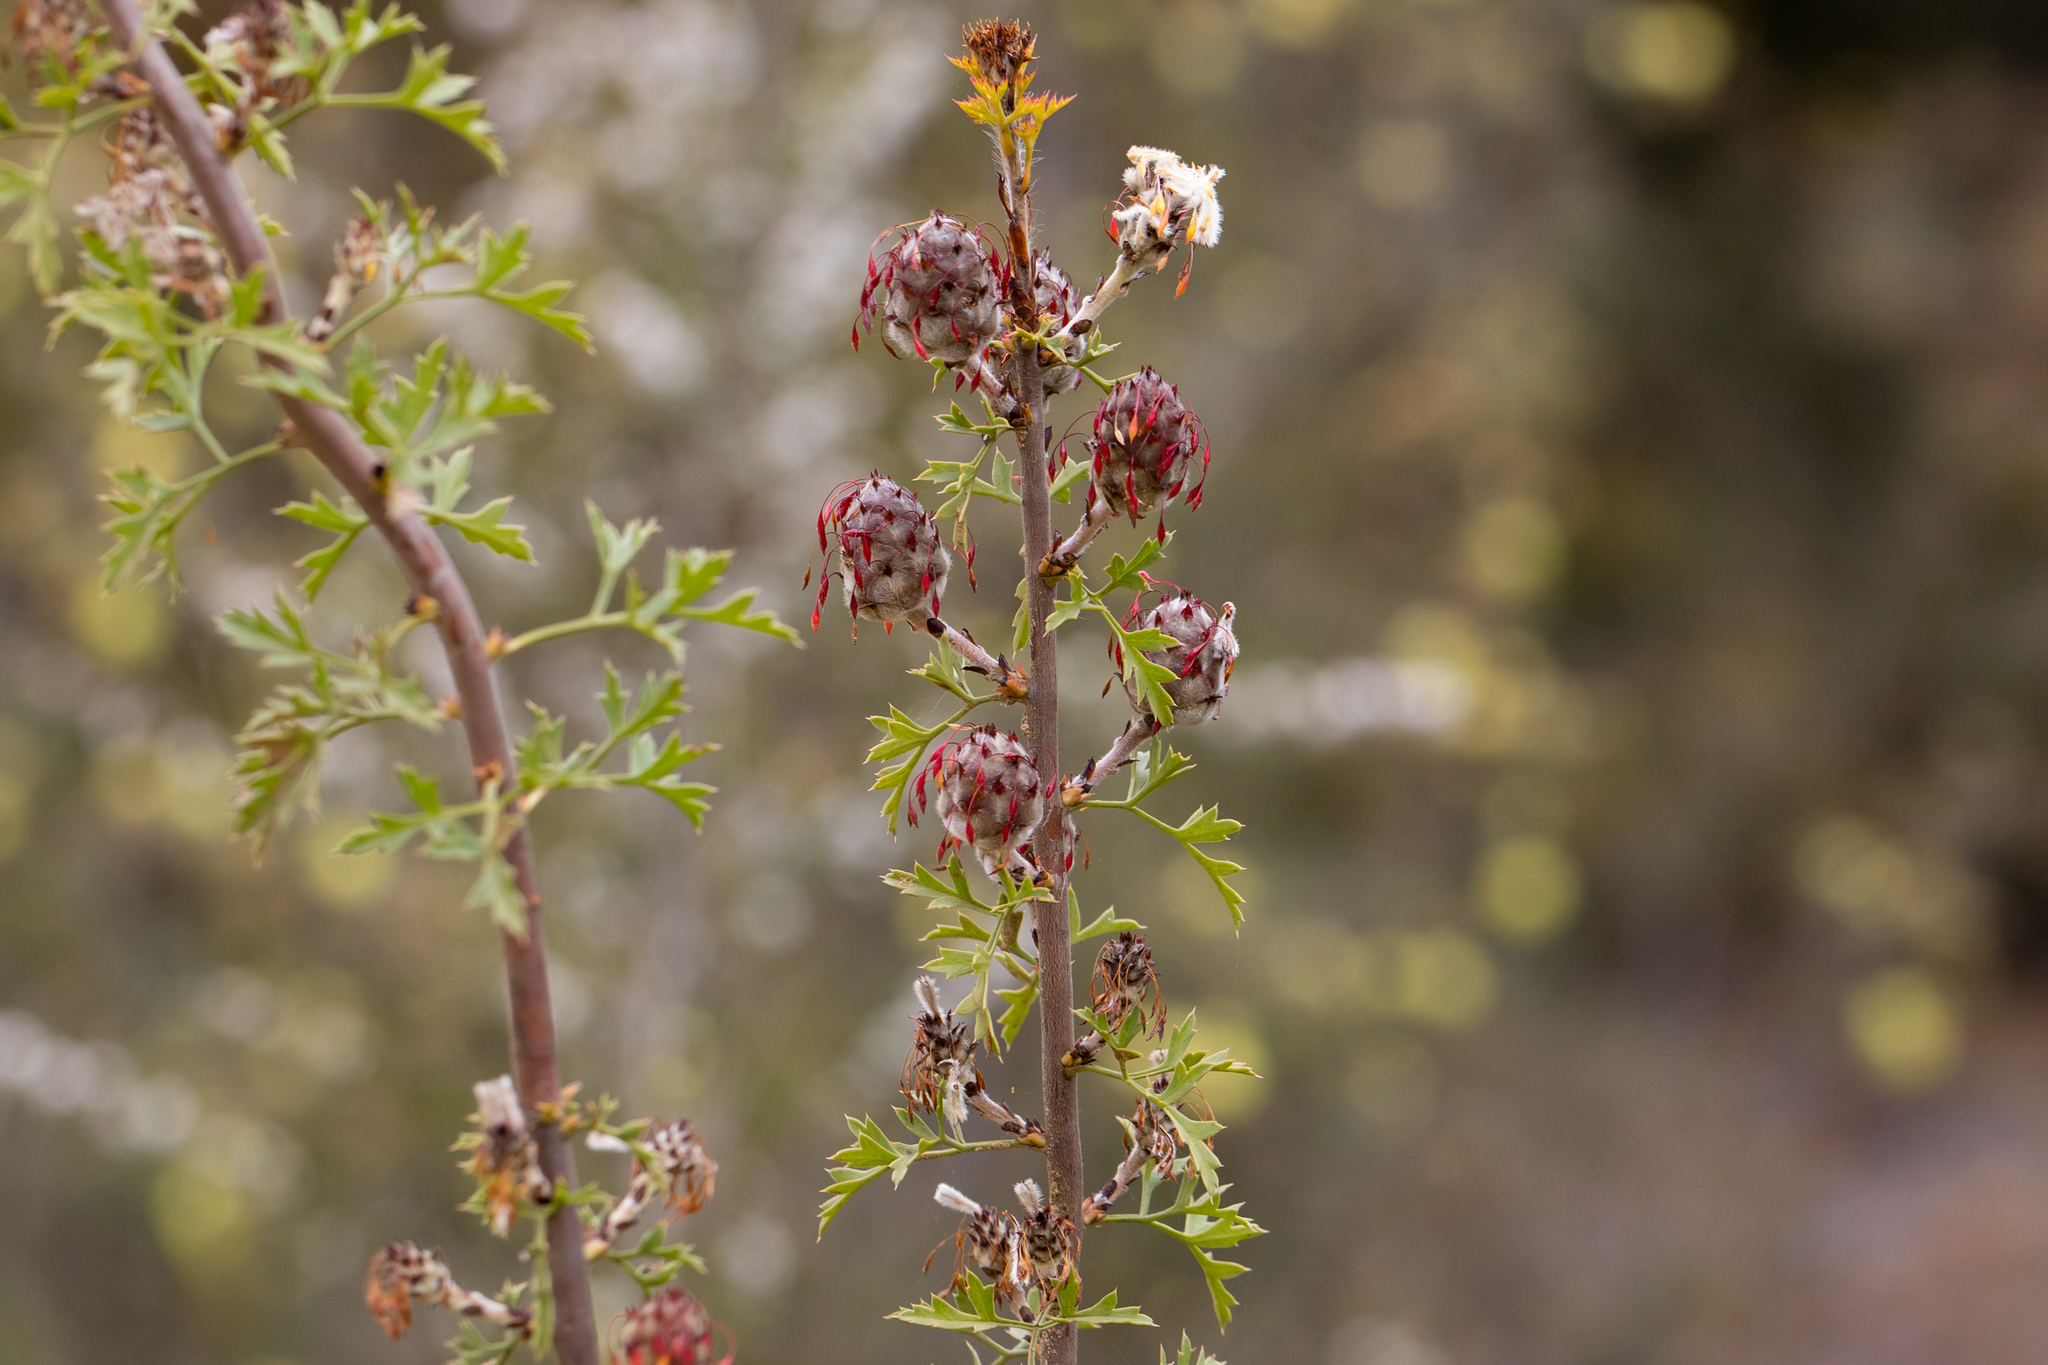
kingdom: Plantae
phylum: Tracheophyta
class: Magnoliopsida
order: Proteales
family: Proteaceae
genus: Petrophile
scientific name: Petrophile diversifolia
